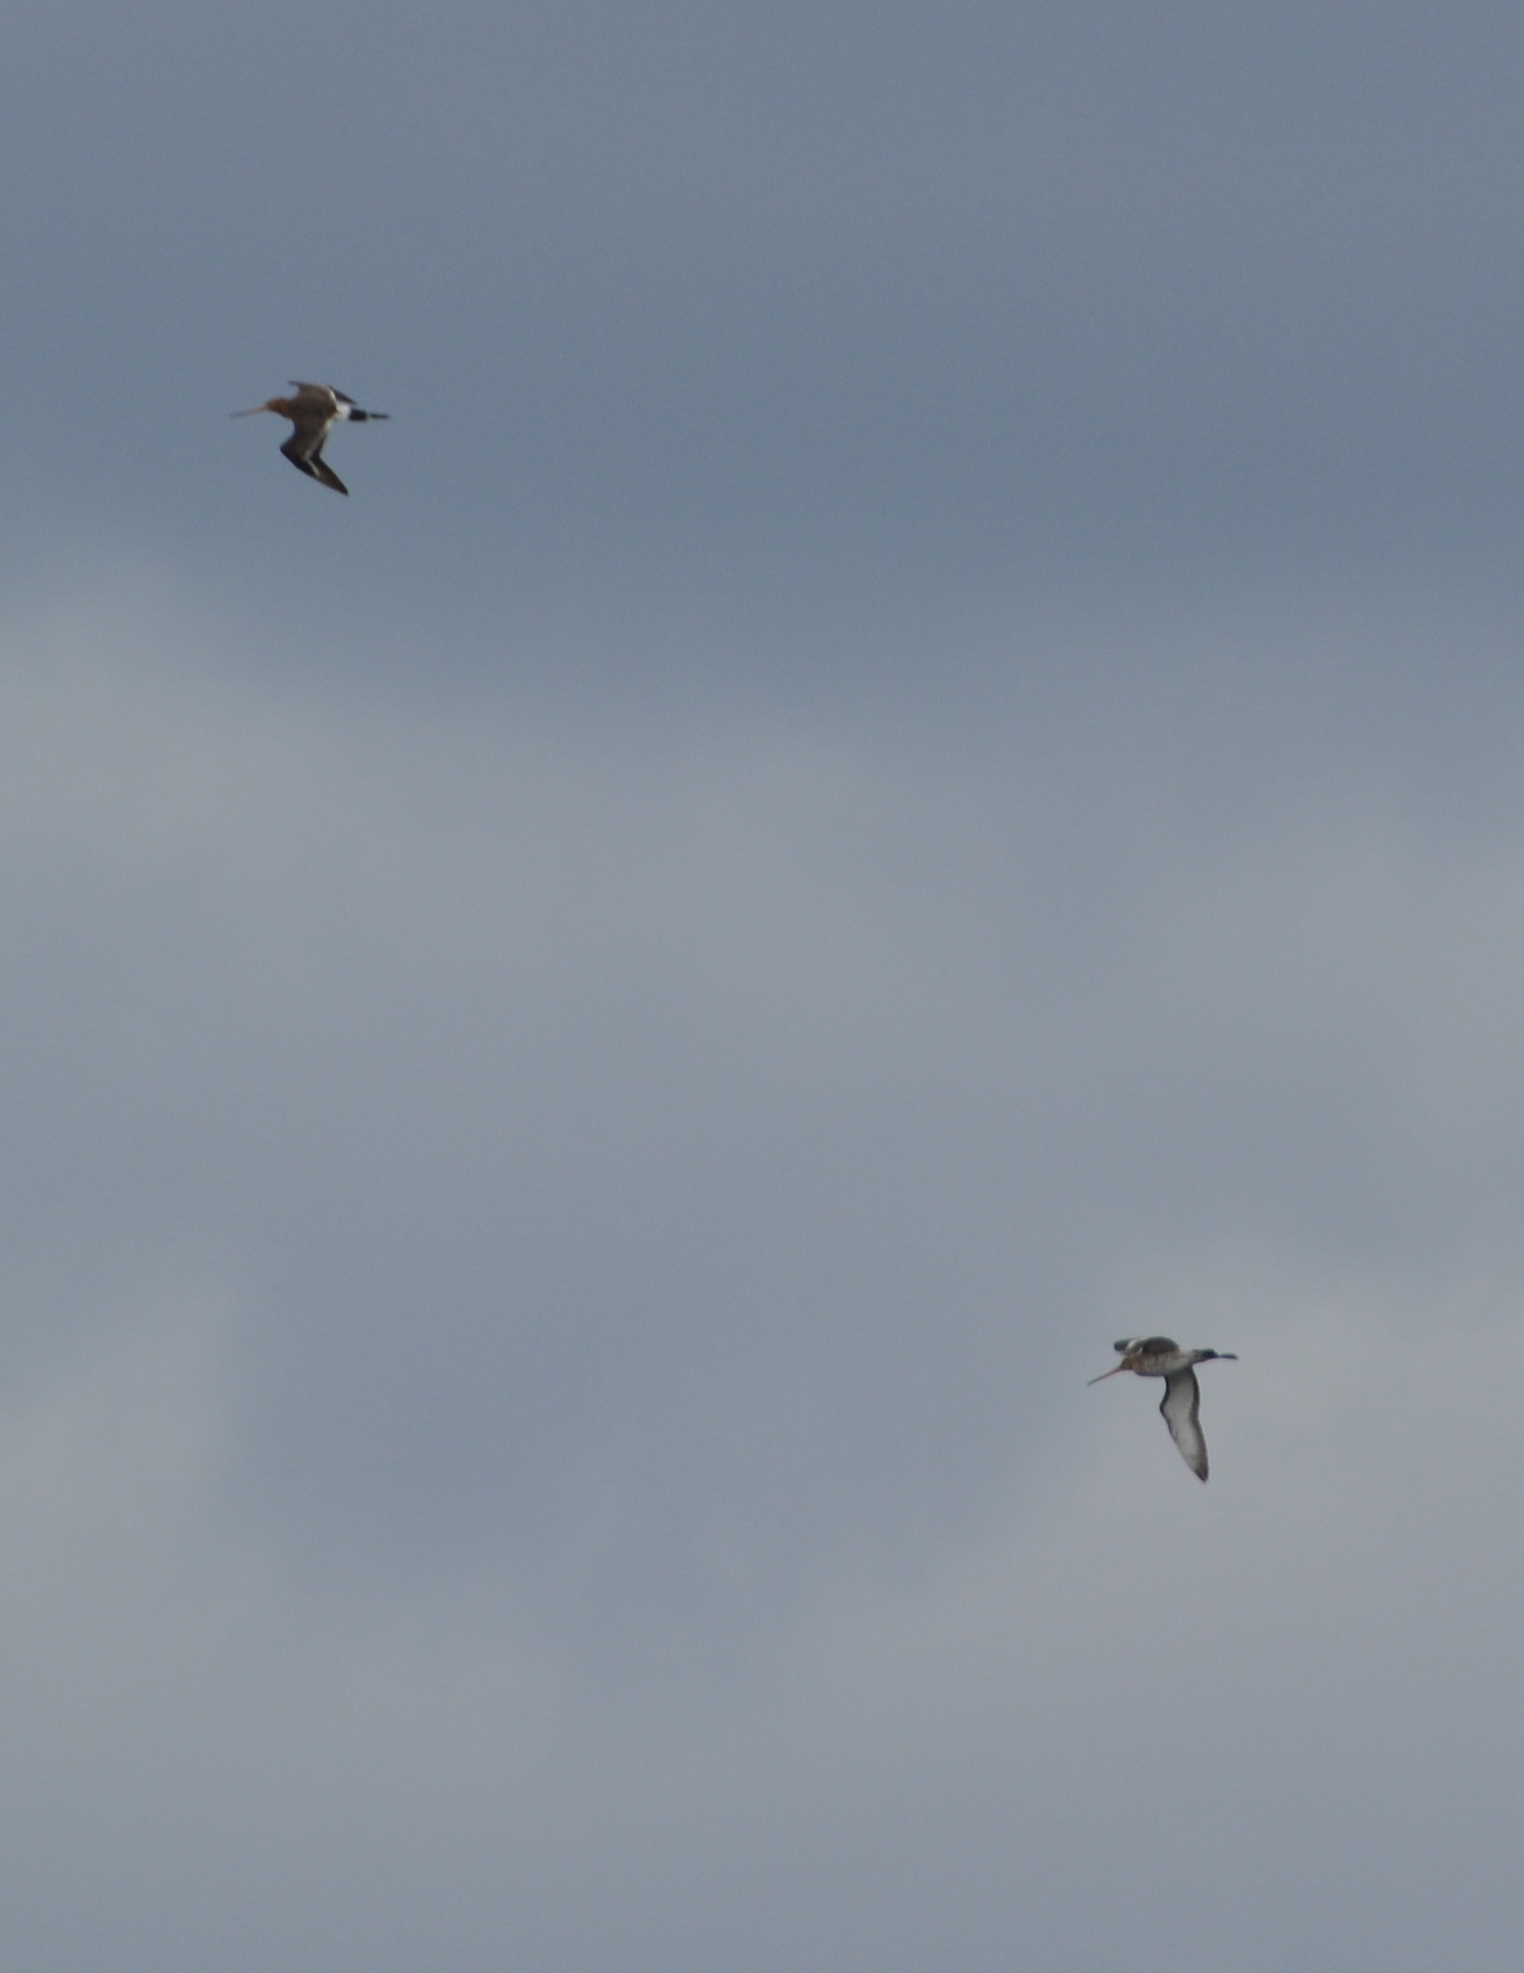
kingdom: Animalia
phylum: Chordata
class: Aves
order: Charadriiformes
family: Scolopacidae
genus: Limosa
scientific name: Limosa limosa
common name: Black-tailed godwit
